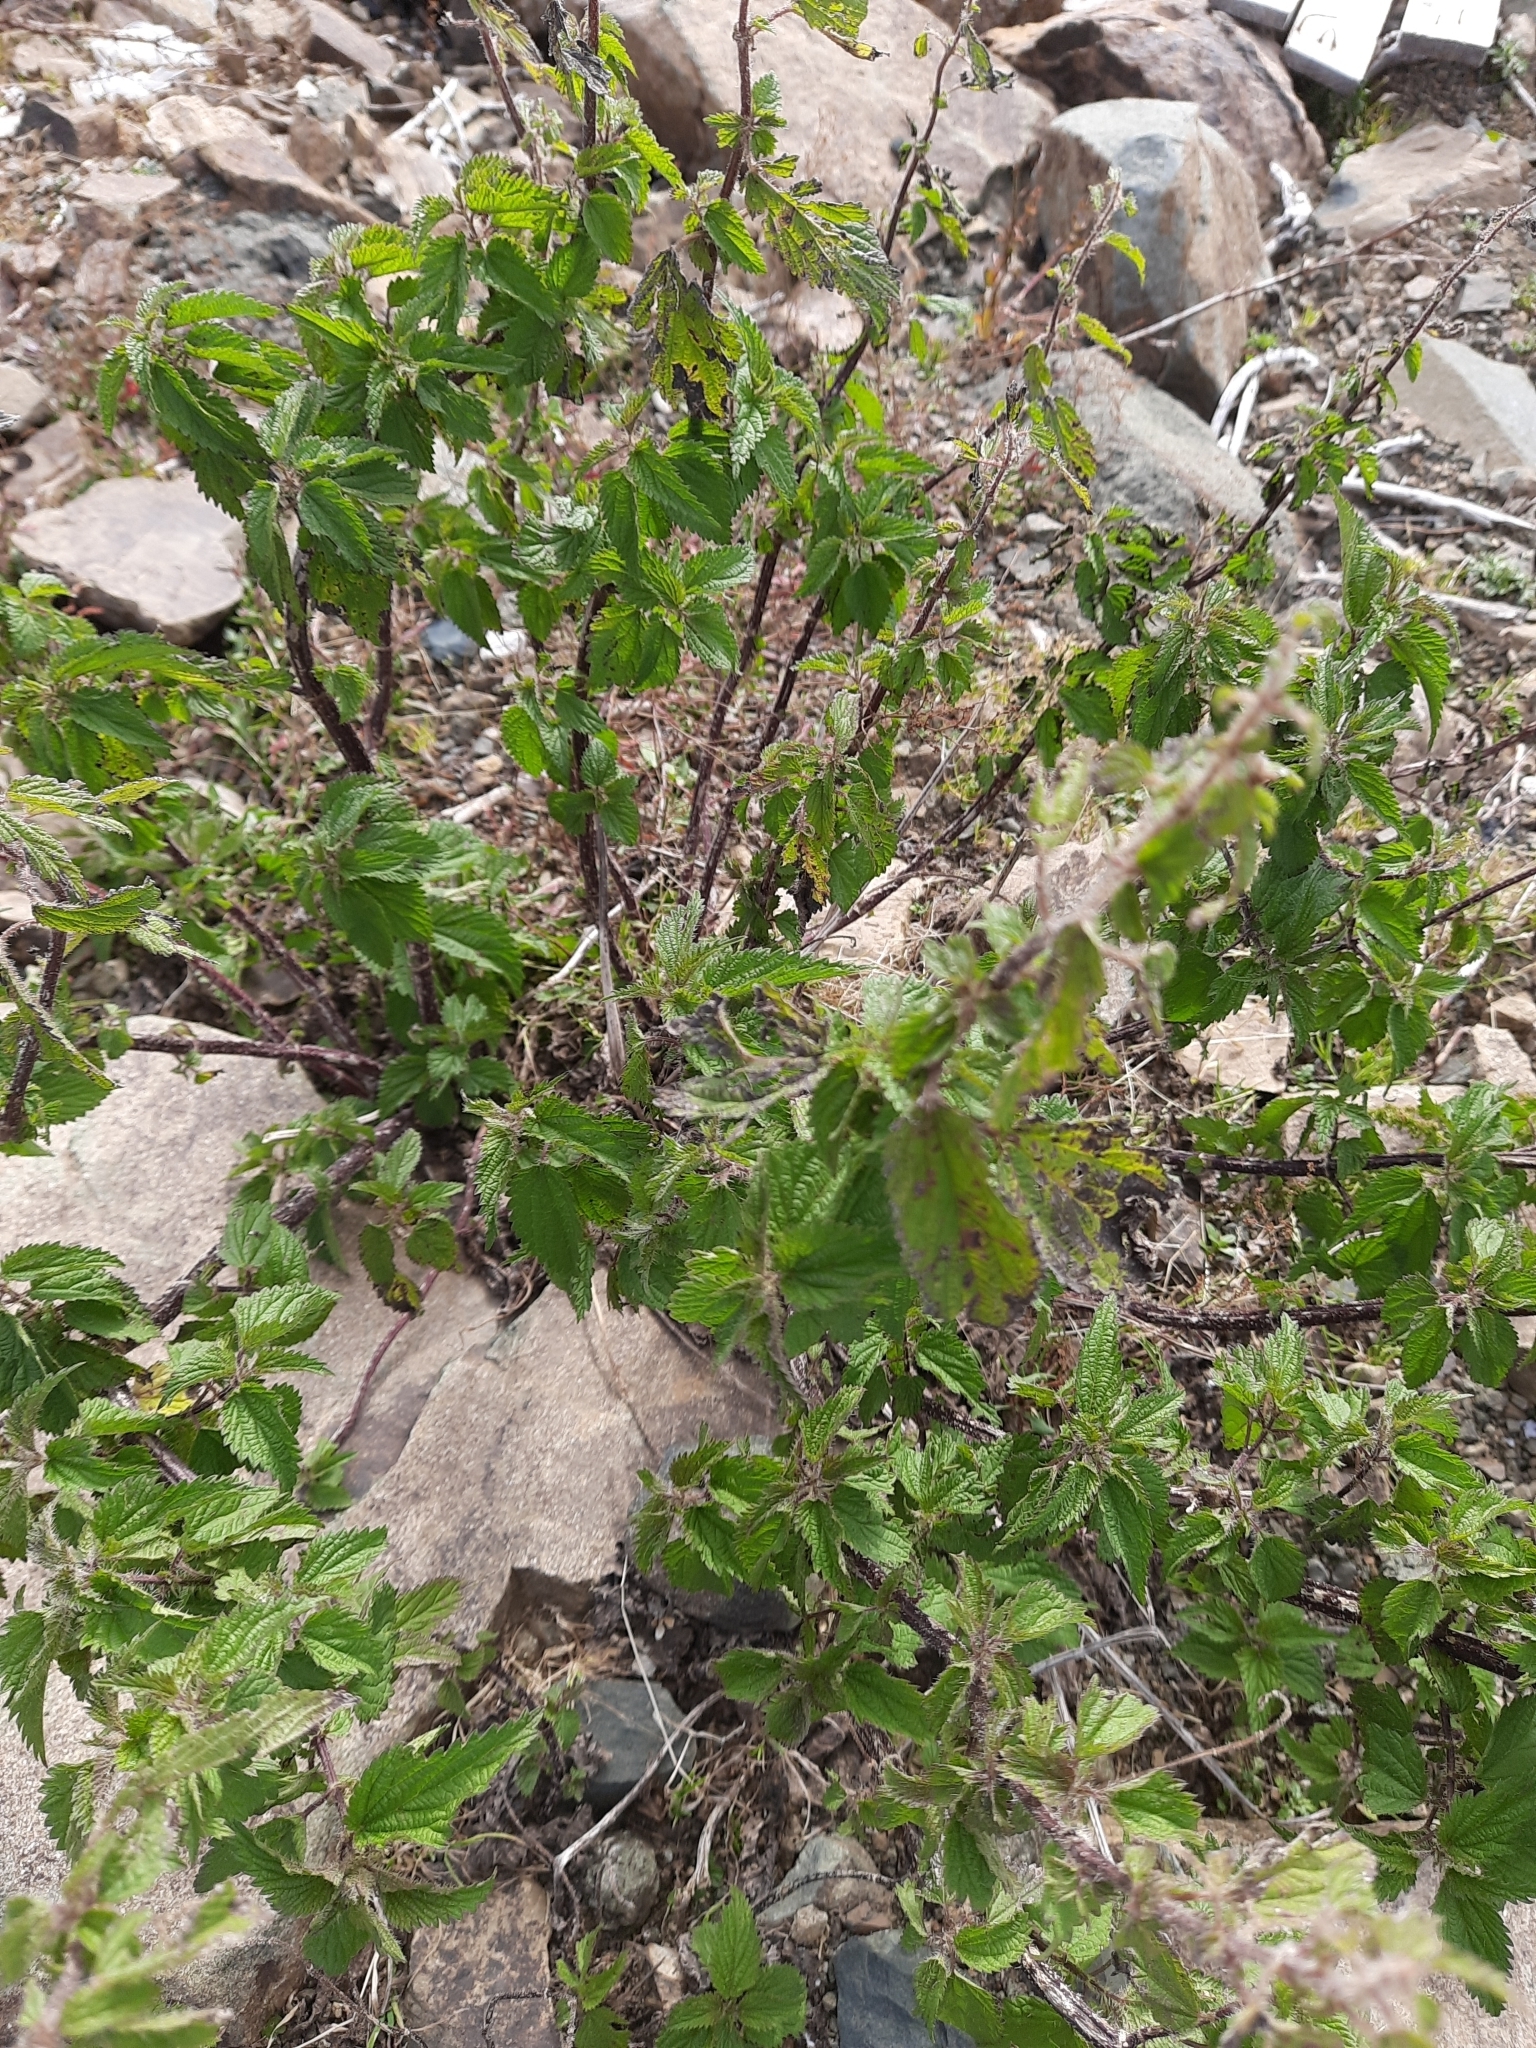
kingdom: Plantae
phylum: Tracheophyta
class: Magnoliopsida
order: Rosales
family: Urticaceae
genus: Urtica
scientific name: Urtica dioica
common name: Common nettle
